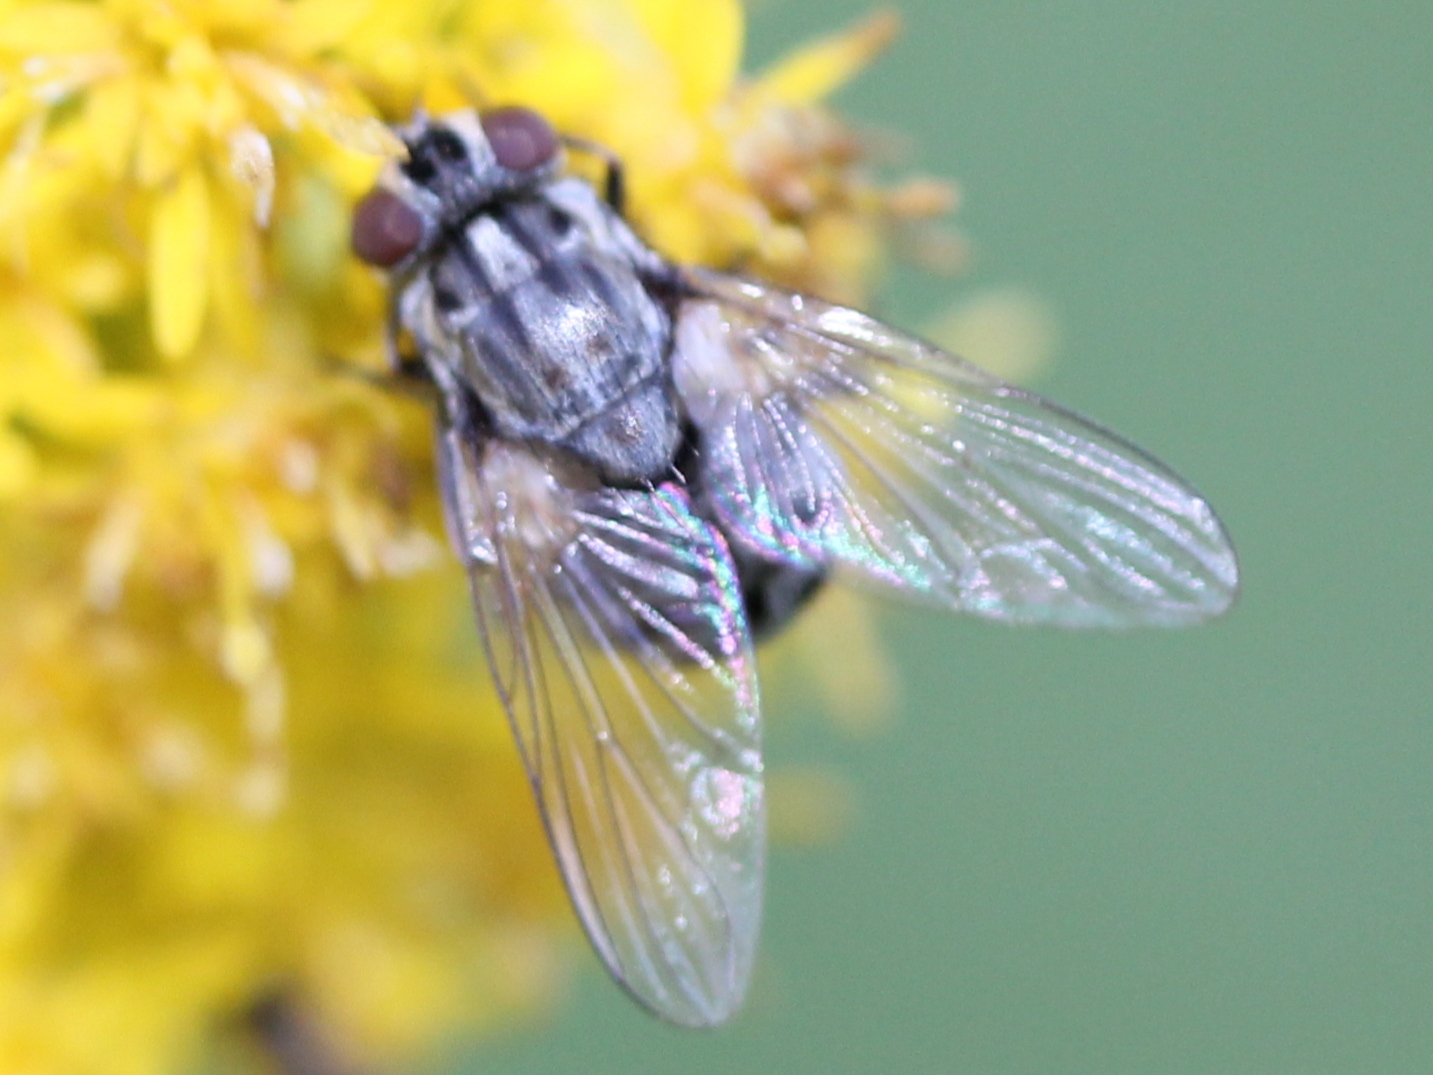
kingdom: Animalia
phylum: Arthropoda
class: Insecta
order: Diptera
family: Muscidae
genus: Stomoxys
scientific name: Stomoxys calcitrans
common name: Stable fly
